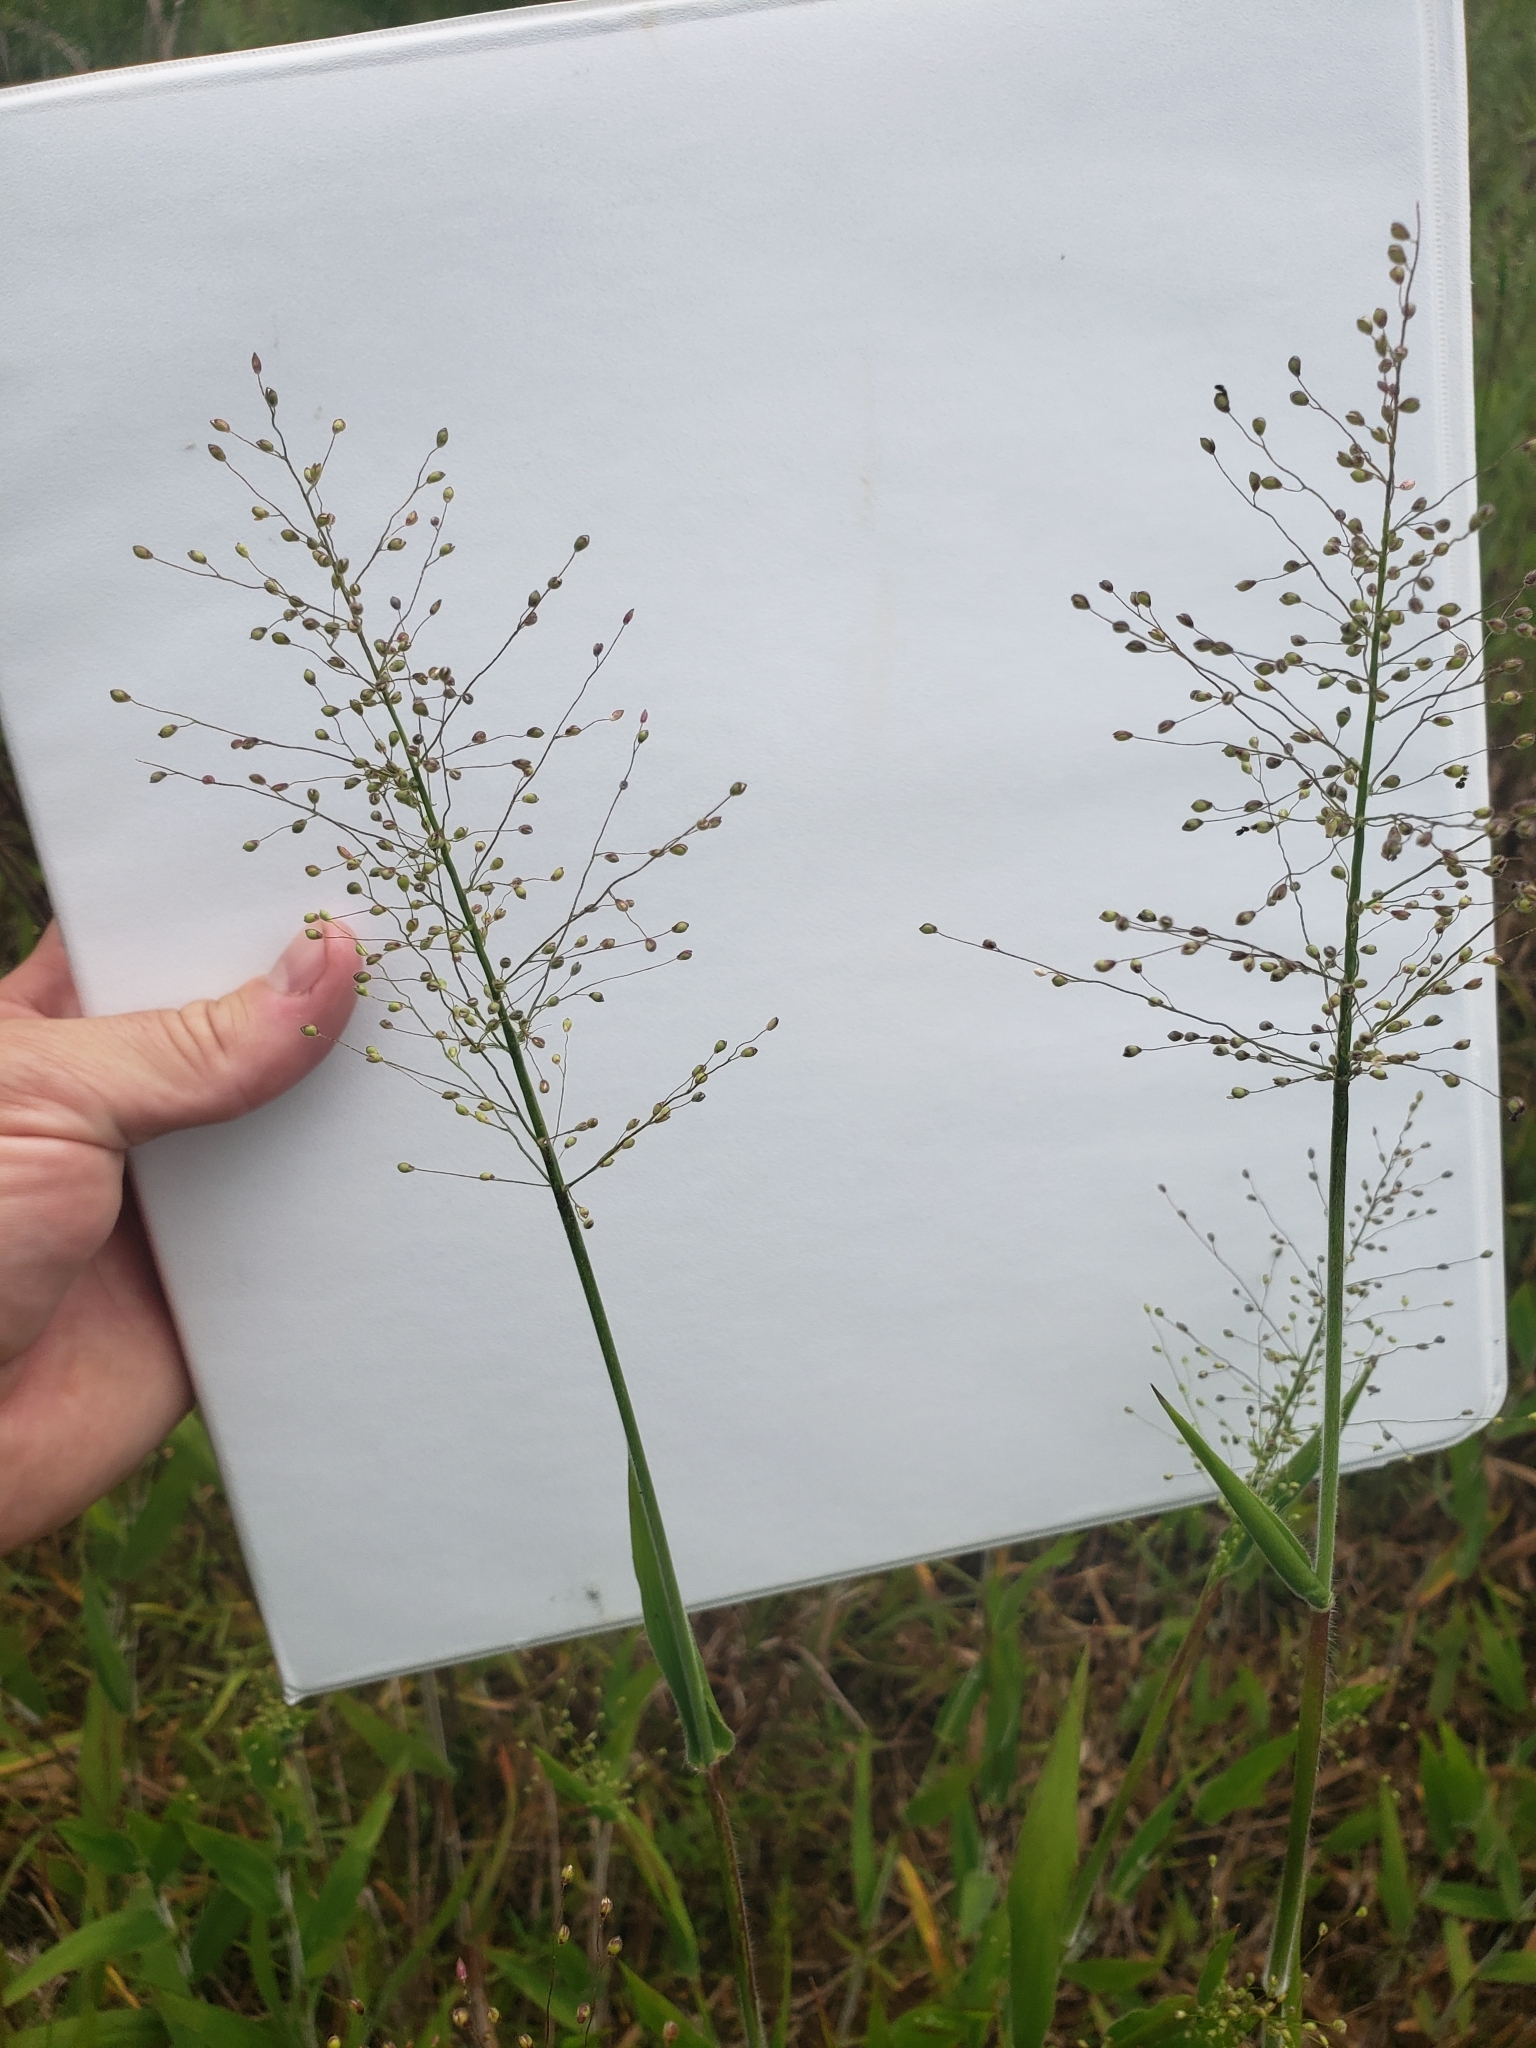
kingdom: Plantae
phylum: Tracheophyta
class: Liliopsida
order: Poales
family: Poaceae
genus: Dichanthelium
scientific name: Dichanthelium scoparium
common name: Velvety panic grass
